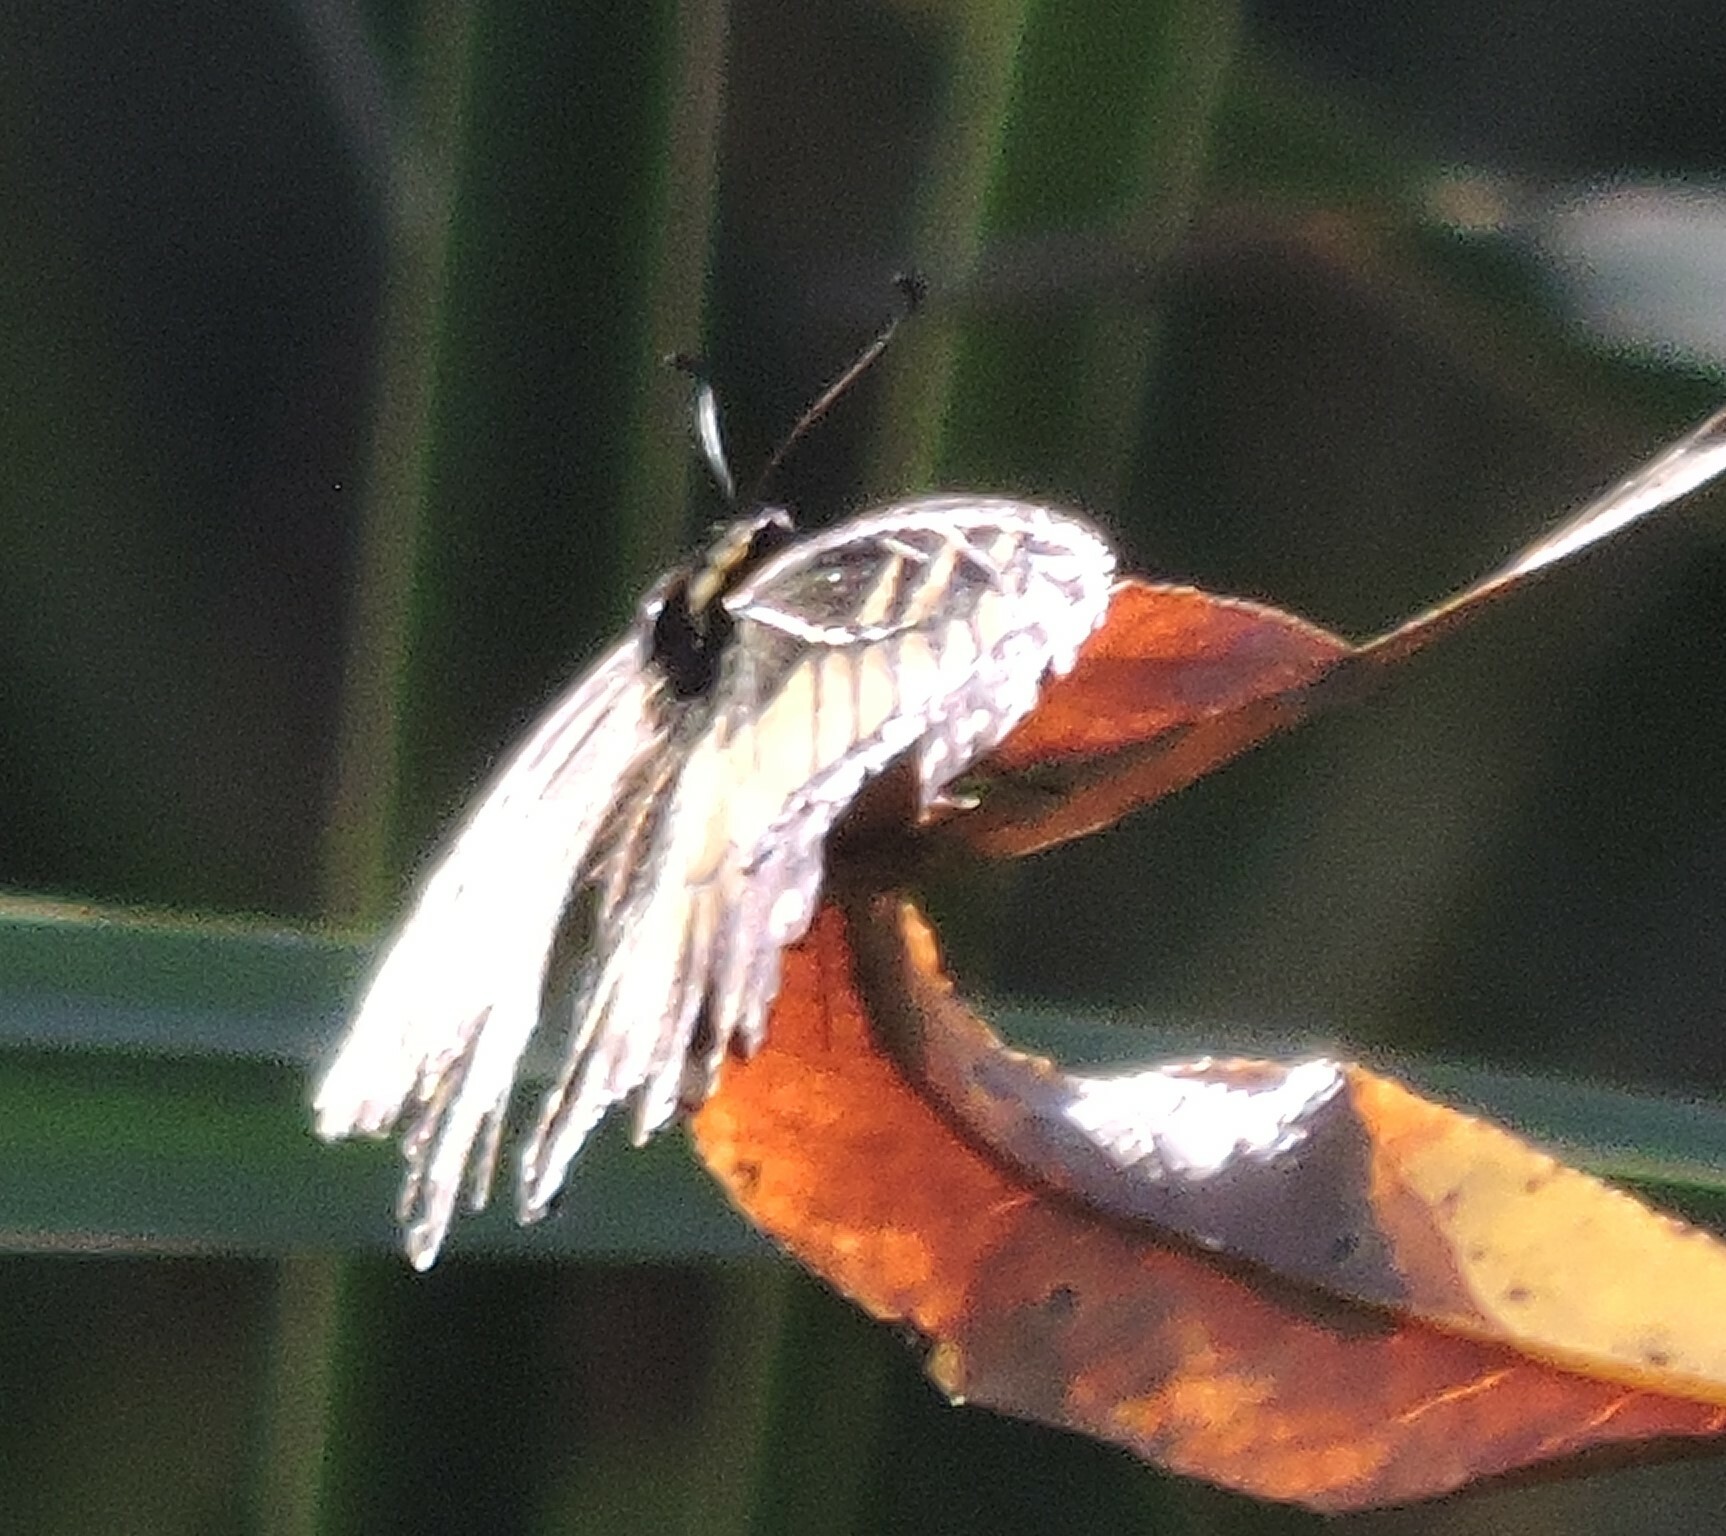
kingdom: Animalia
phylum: Arthropoda
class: Insecta
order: Lepidoptera
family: Papilionidae
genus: Papilio
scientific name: Papilio zelicaon
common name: Anise swallowtail
